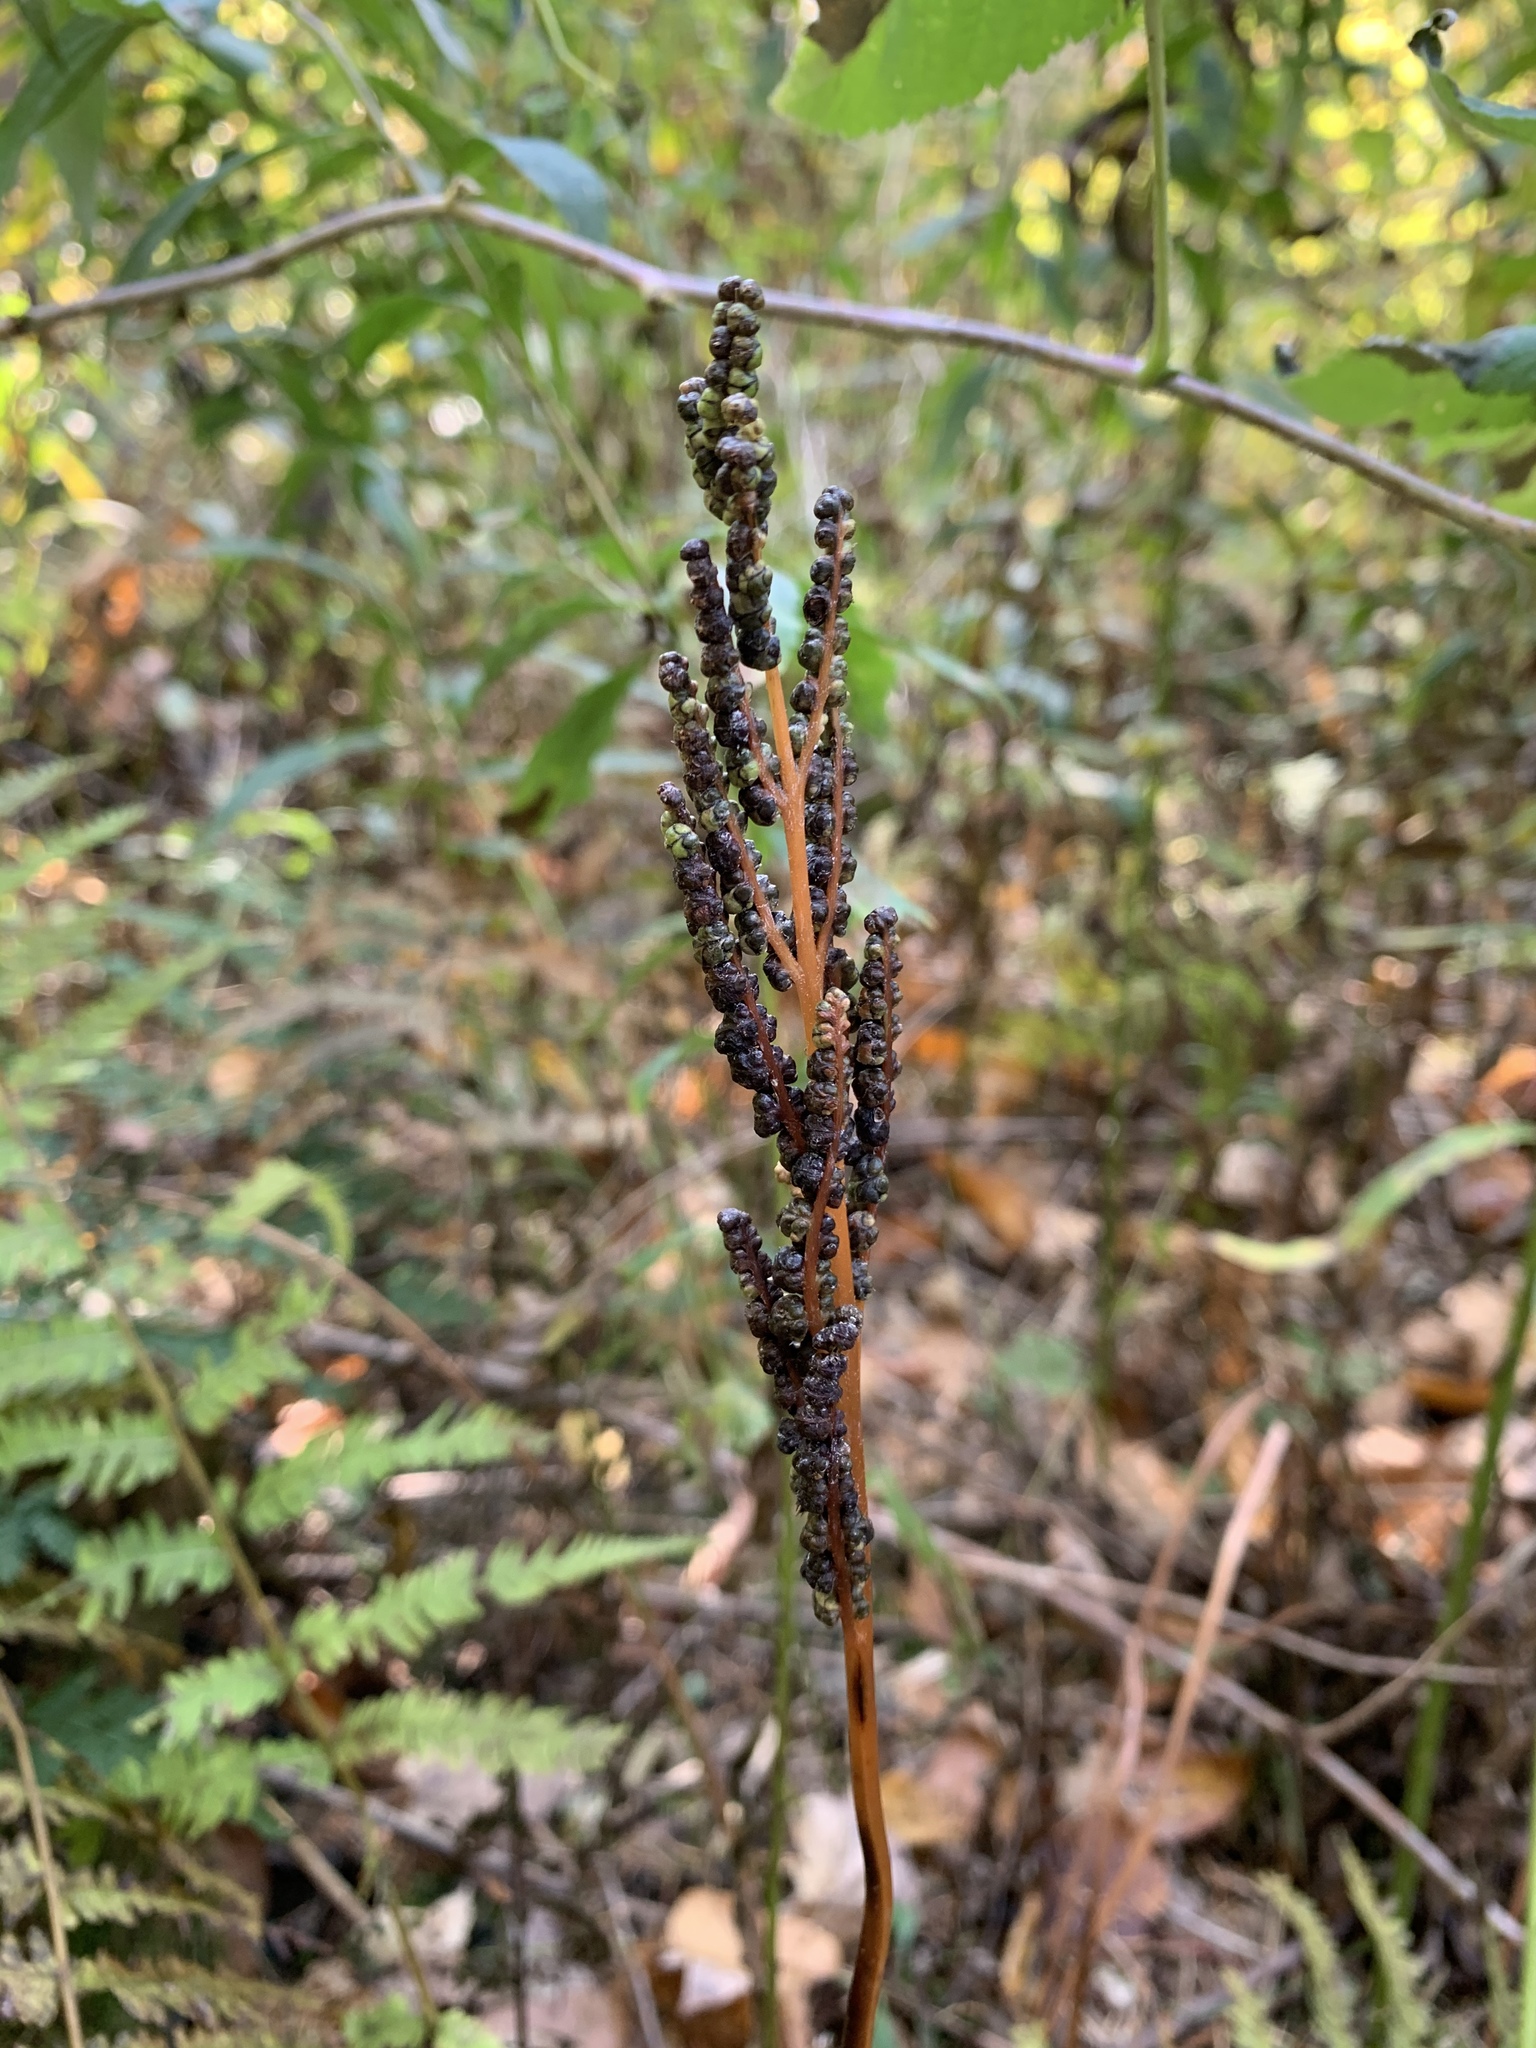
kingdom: Plantae
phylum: Tracheophyta
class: Polypodiopsida
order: Polypodiales
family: Onocleaceae
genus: Onoclea
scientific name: Onoclea sensibilis
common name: Sensitive fern
